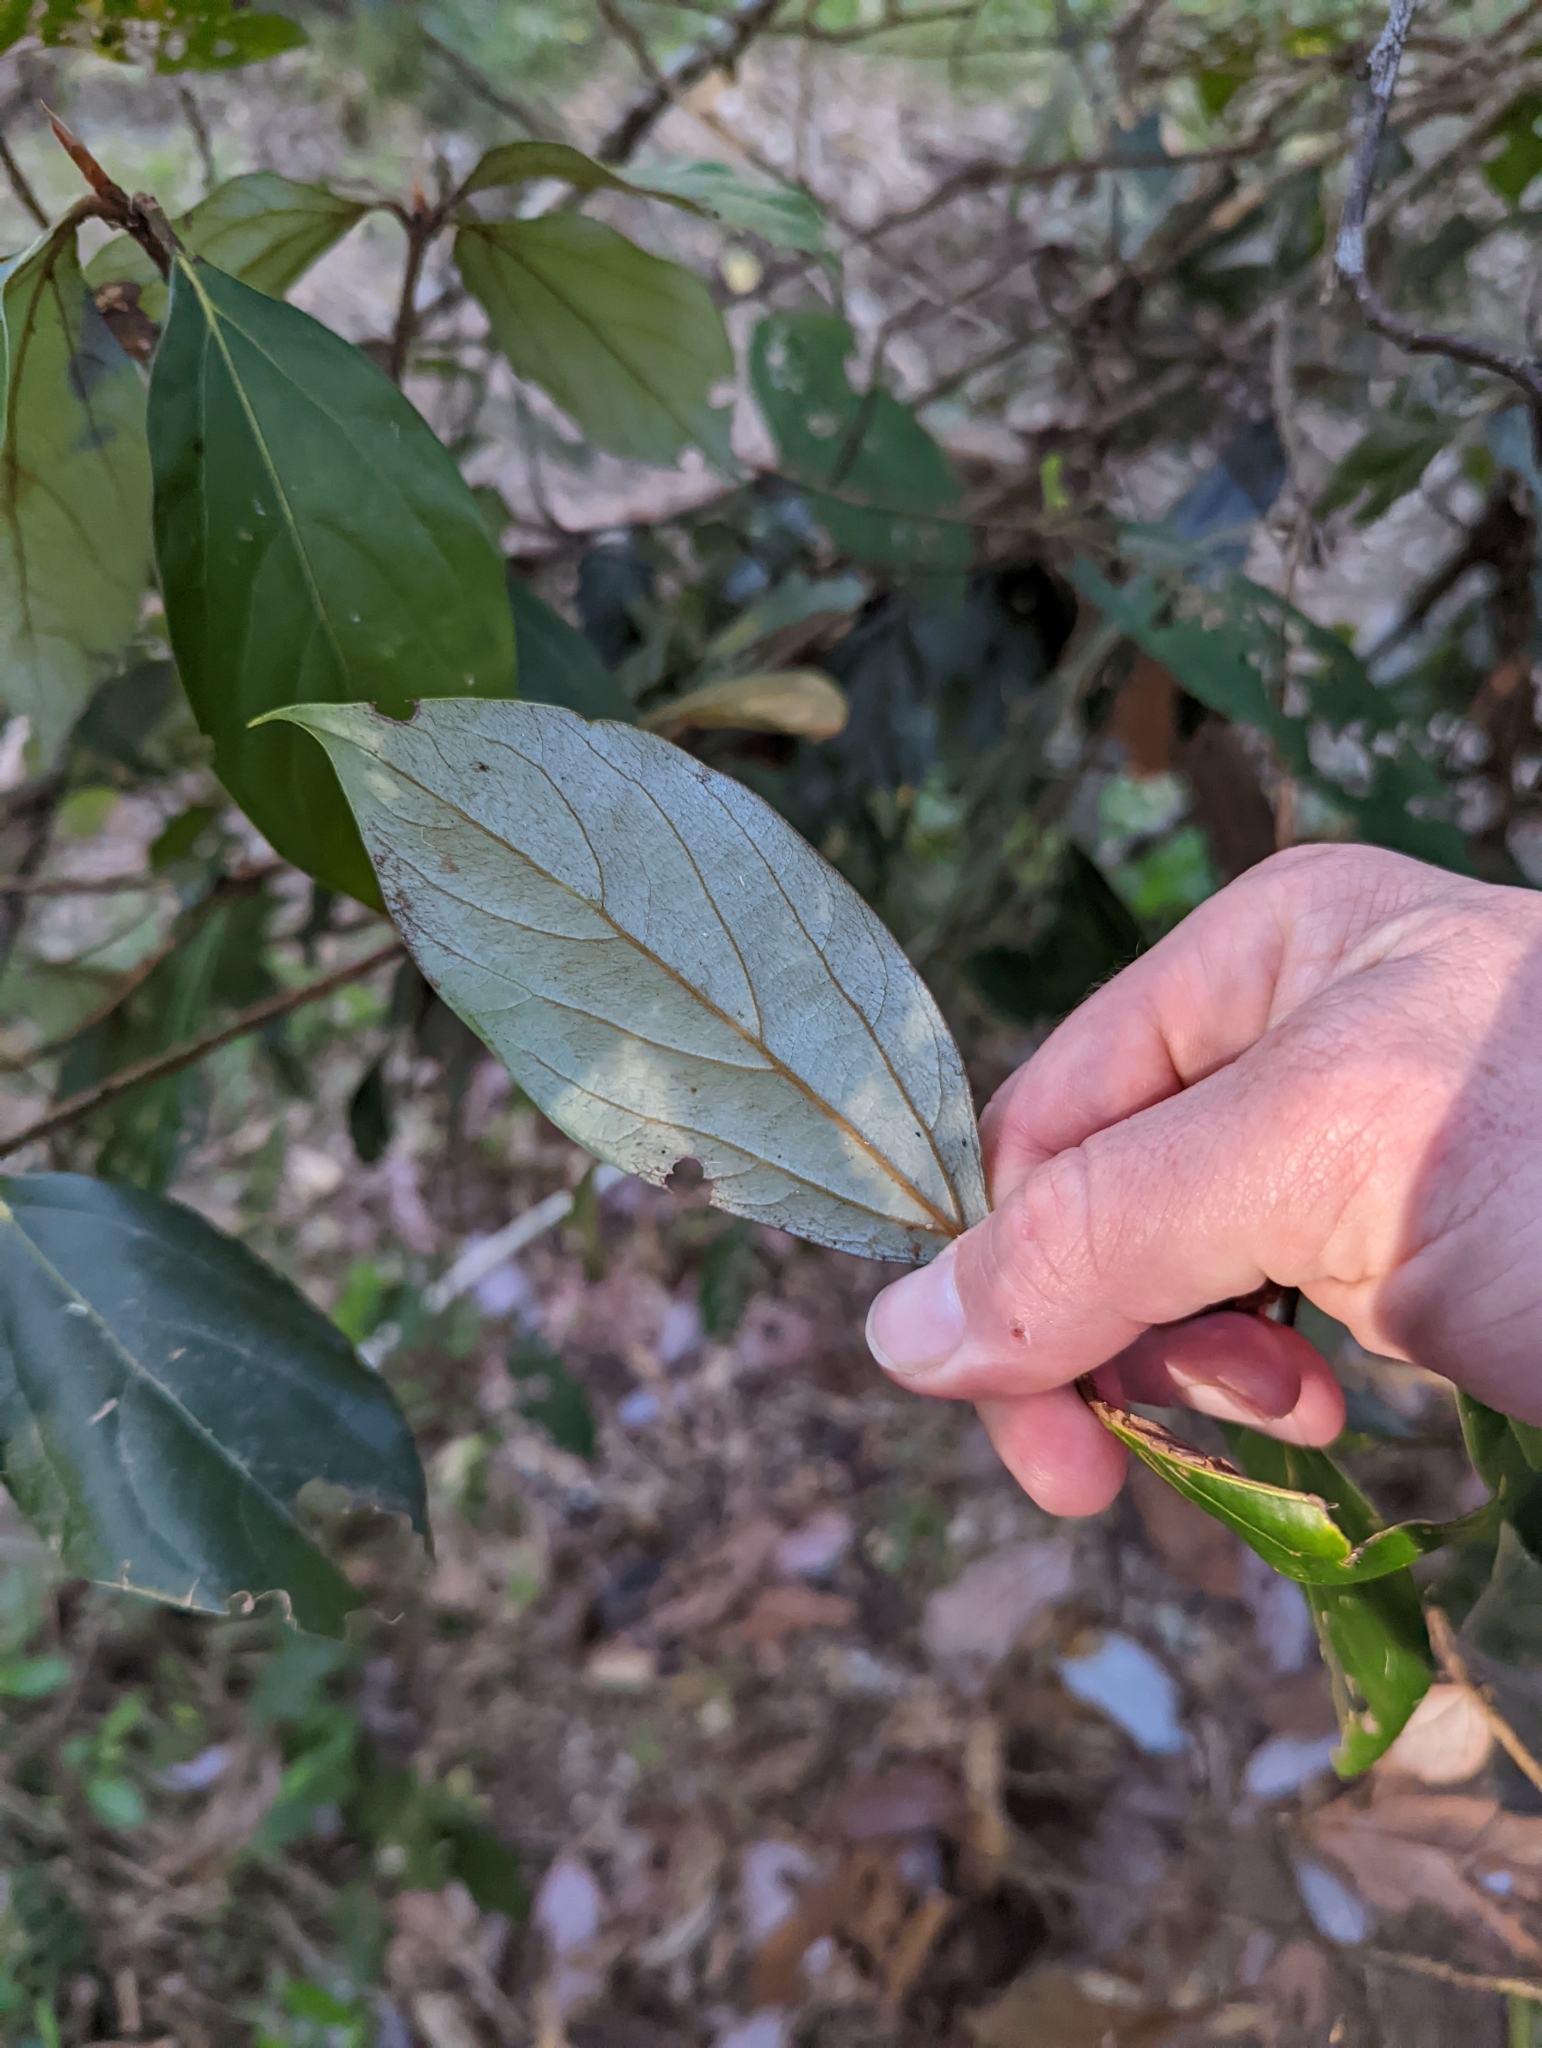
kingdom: Plantae
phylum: Tracheophyta
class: Magnoliopsida
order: Laurales
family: Lauraceae
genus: Neolitsea
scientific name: Neolitsea dealbata
